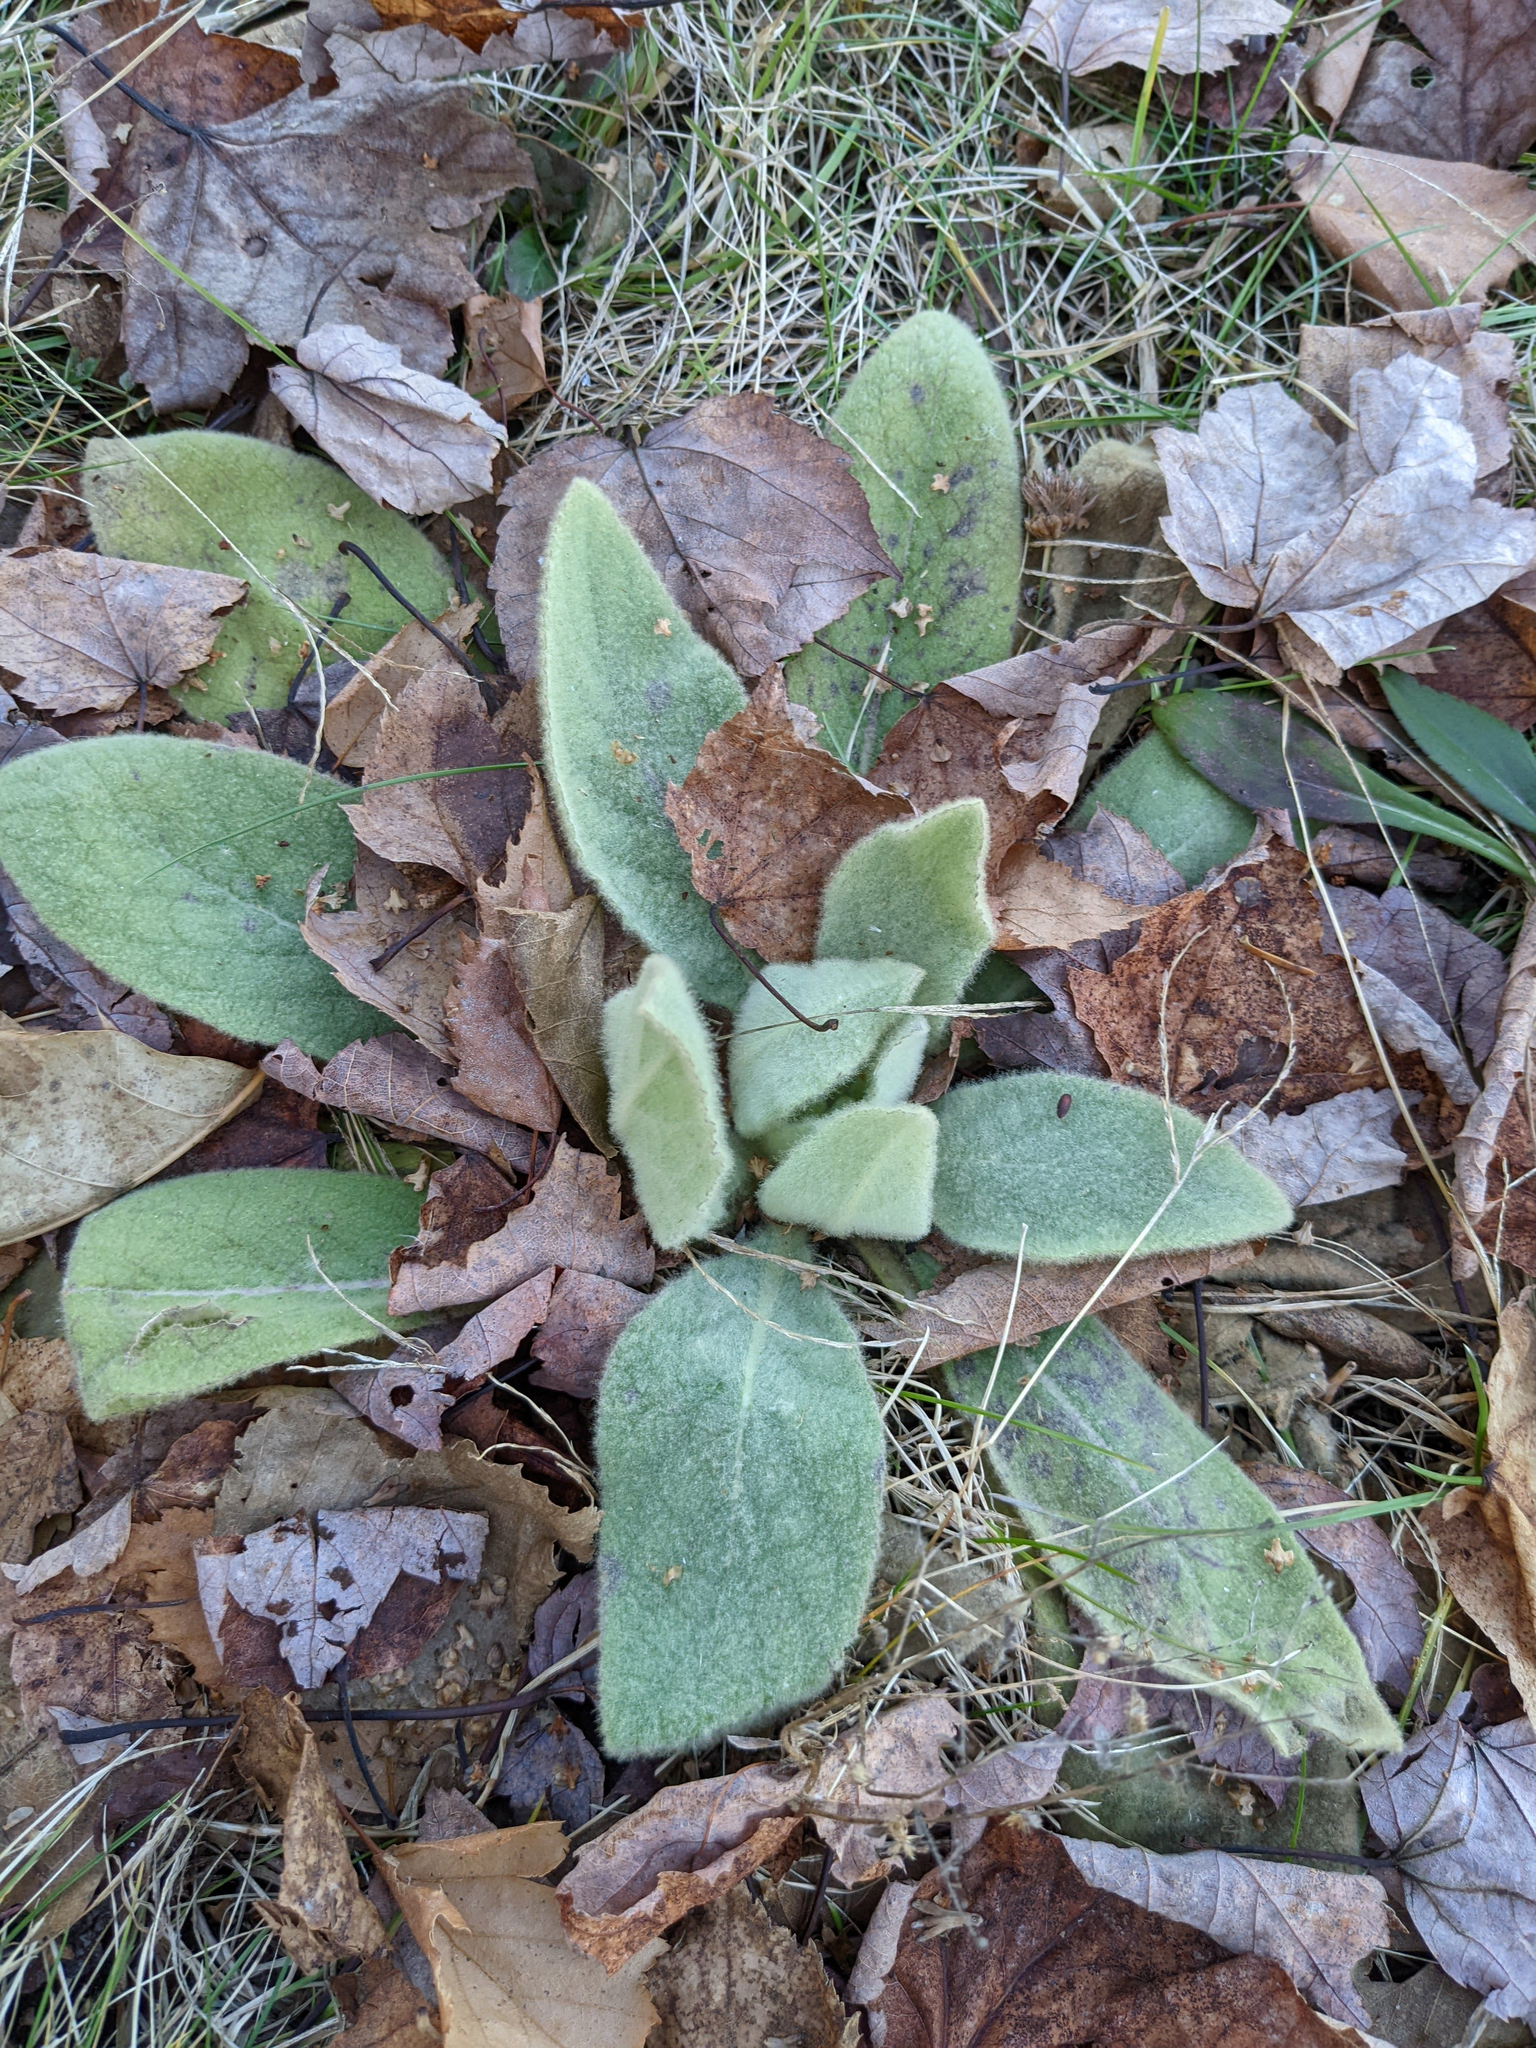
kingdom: Plantae
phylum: Tracheophyta
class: Magnoliopsida
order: Lamiales
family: Scrophulariaceae
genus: Verbascum
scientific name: Verbascum thapsus
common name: Common mullein
